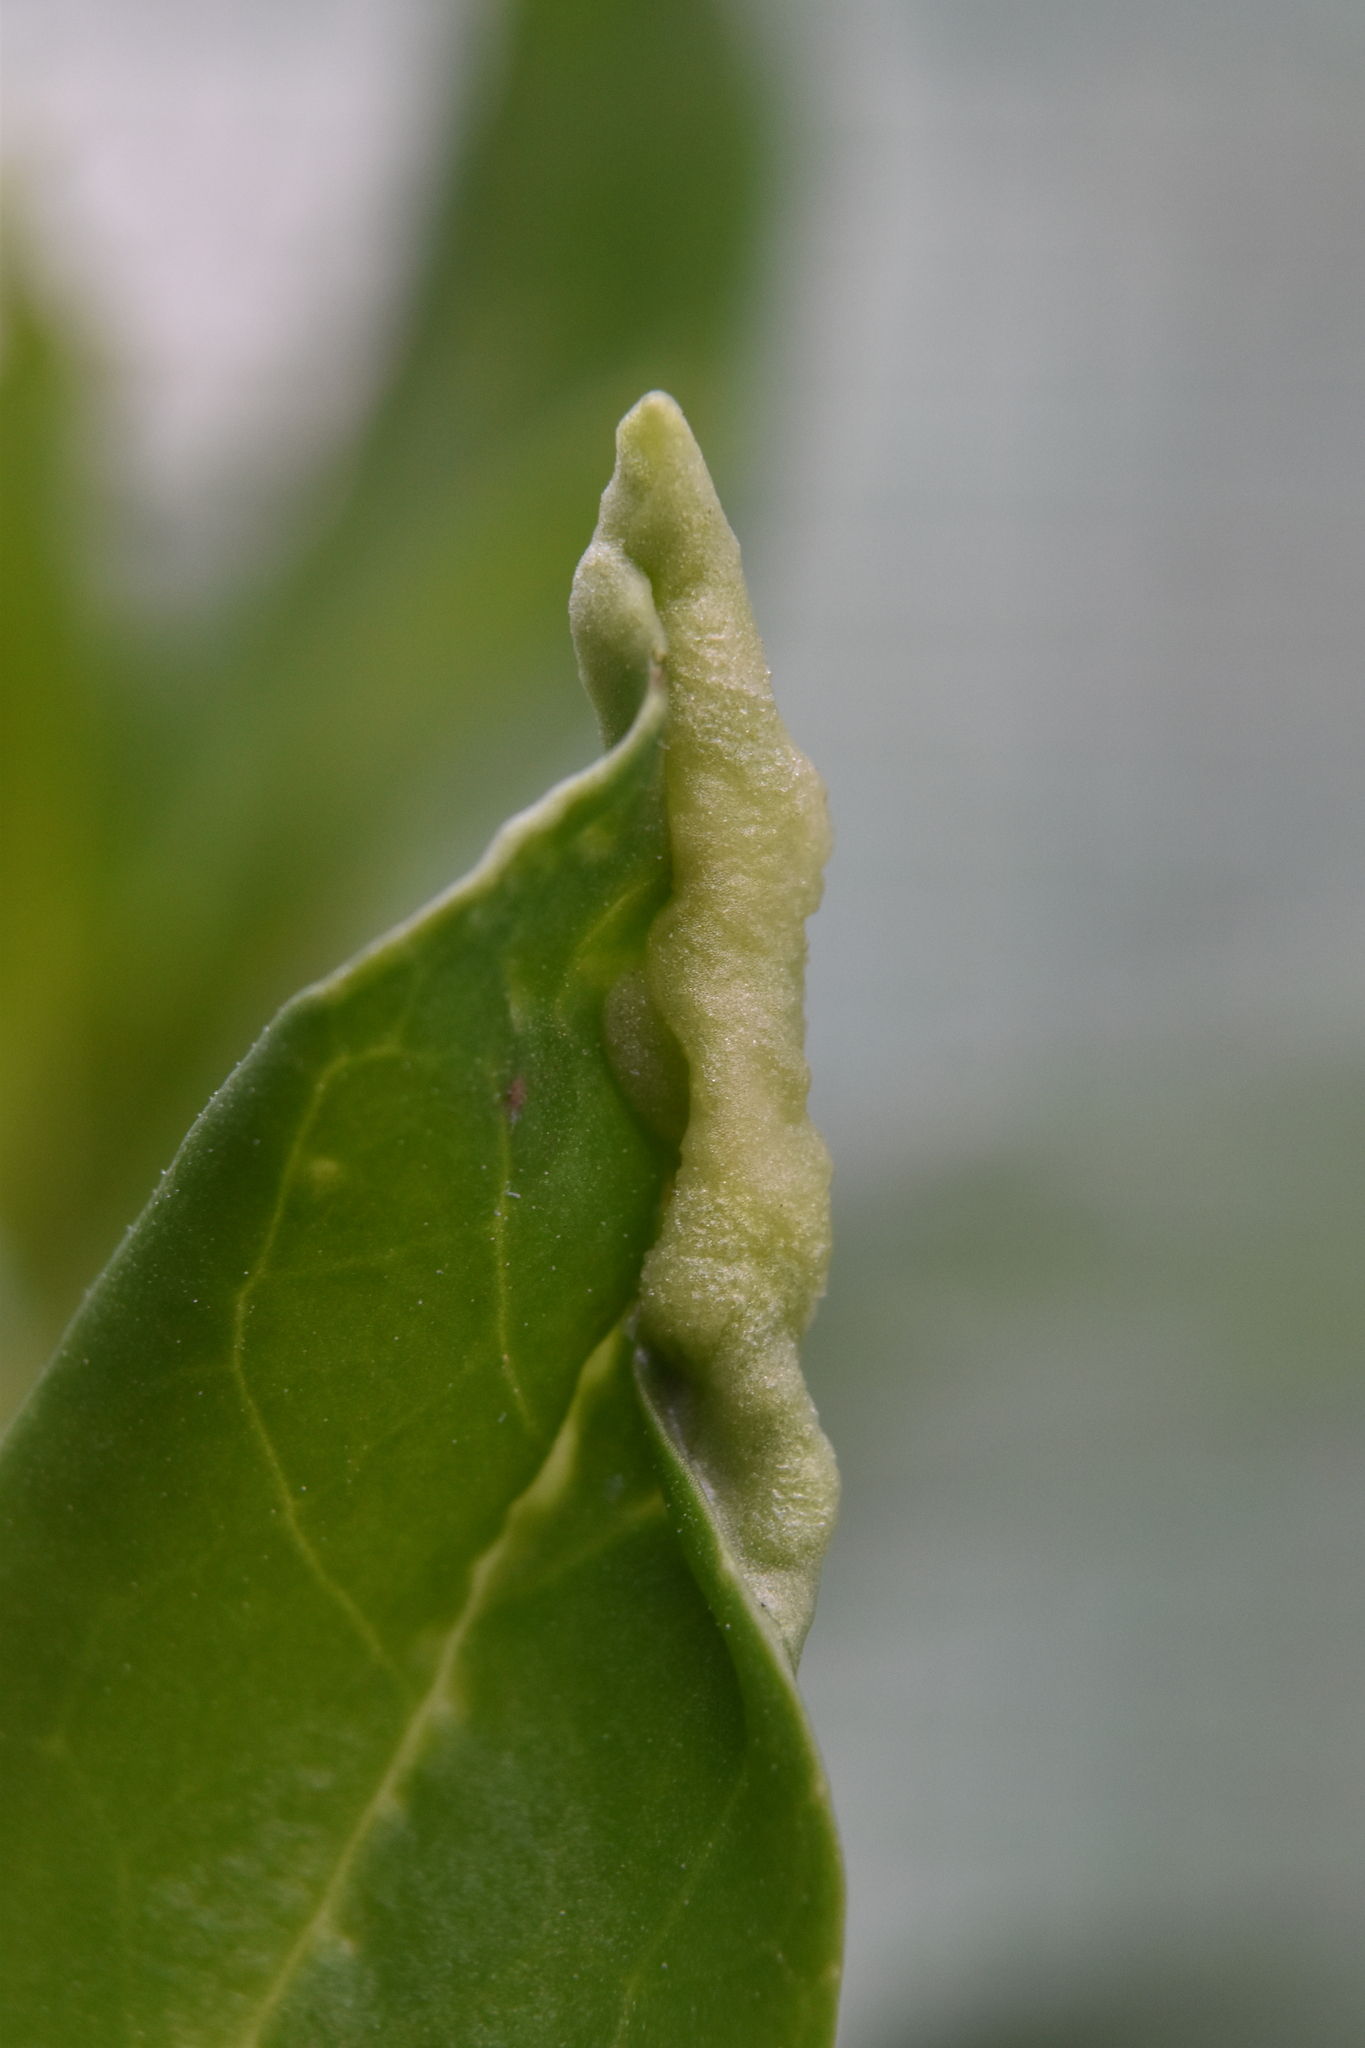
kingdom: Animalia
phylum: Arthropoda
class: Insecta
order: Hemiptera
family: Triozidae
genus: Trioza
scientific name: Trioza centranthi
